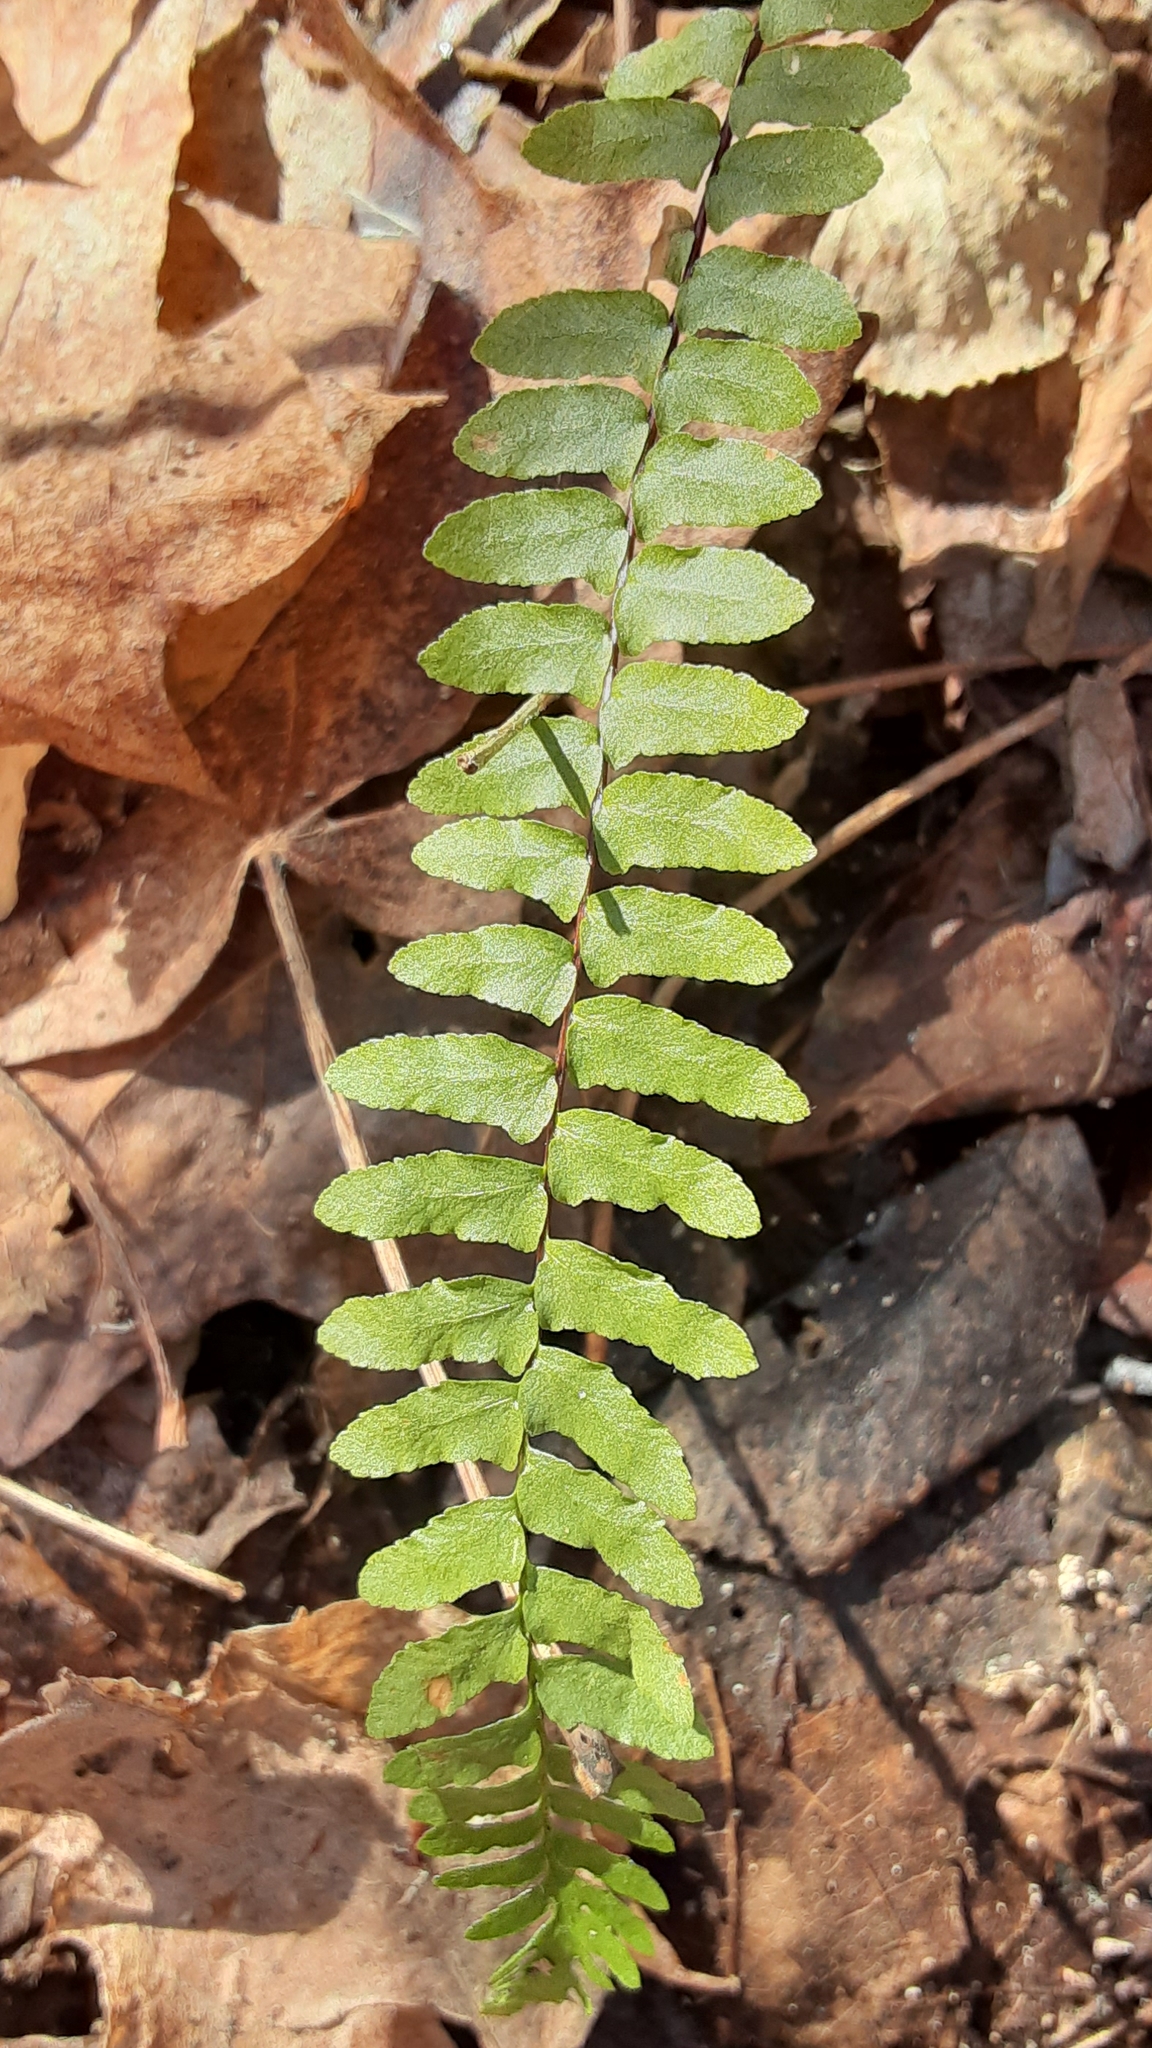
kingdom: Plantae
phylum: Tracheophyta
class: Polypodiopsida
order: Polypodiales
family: Aspleniaceae
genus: Asplenium
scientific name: Asplenium platyneuron
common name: Ebony spleenwort
